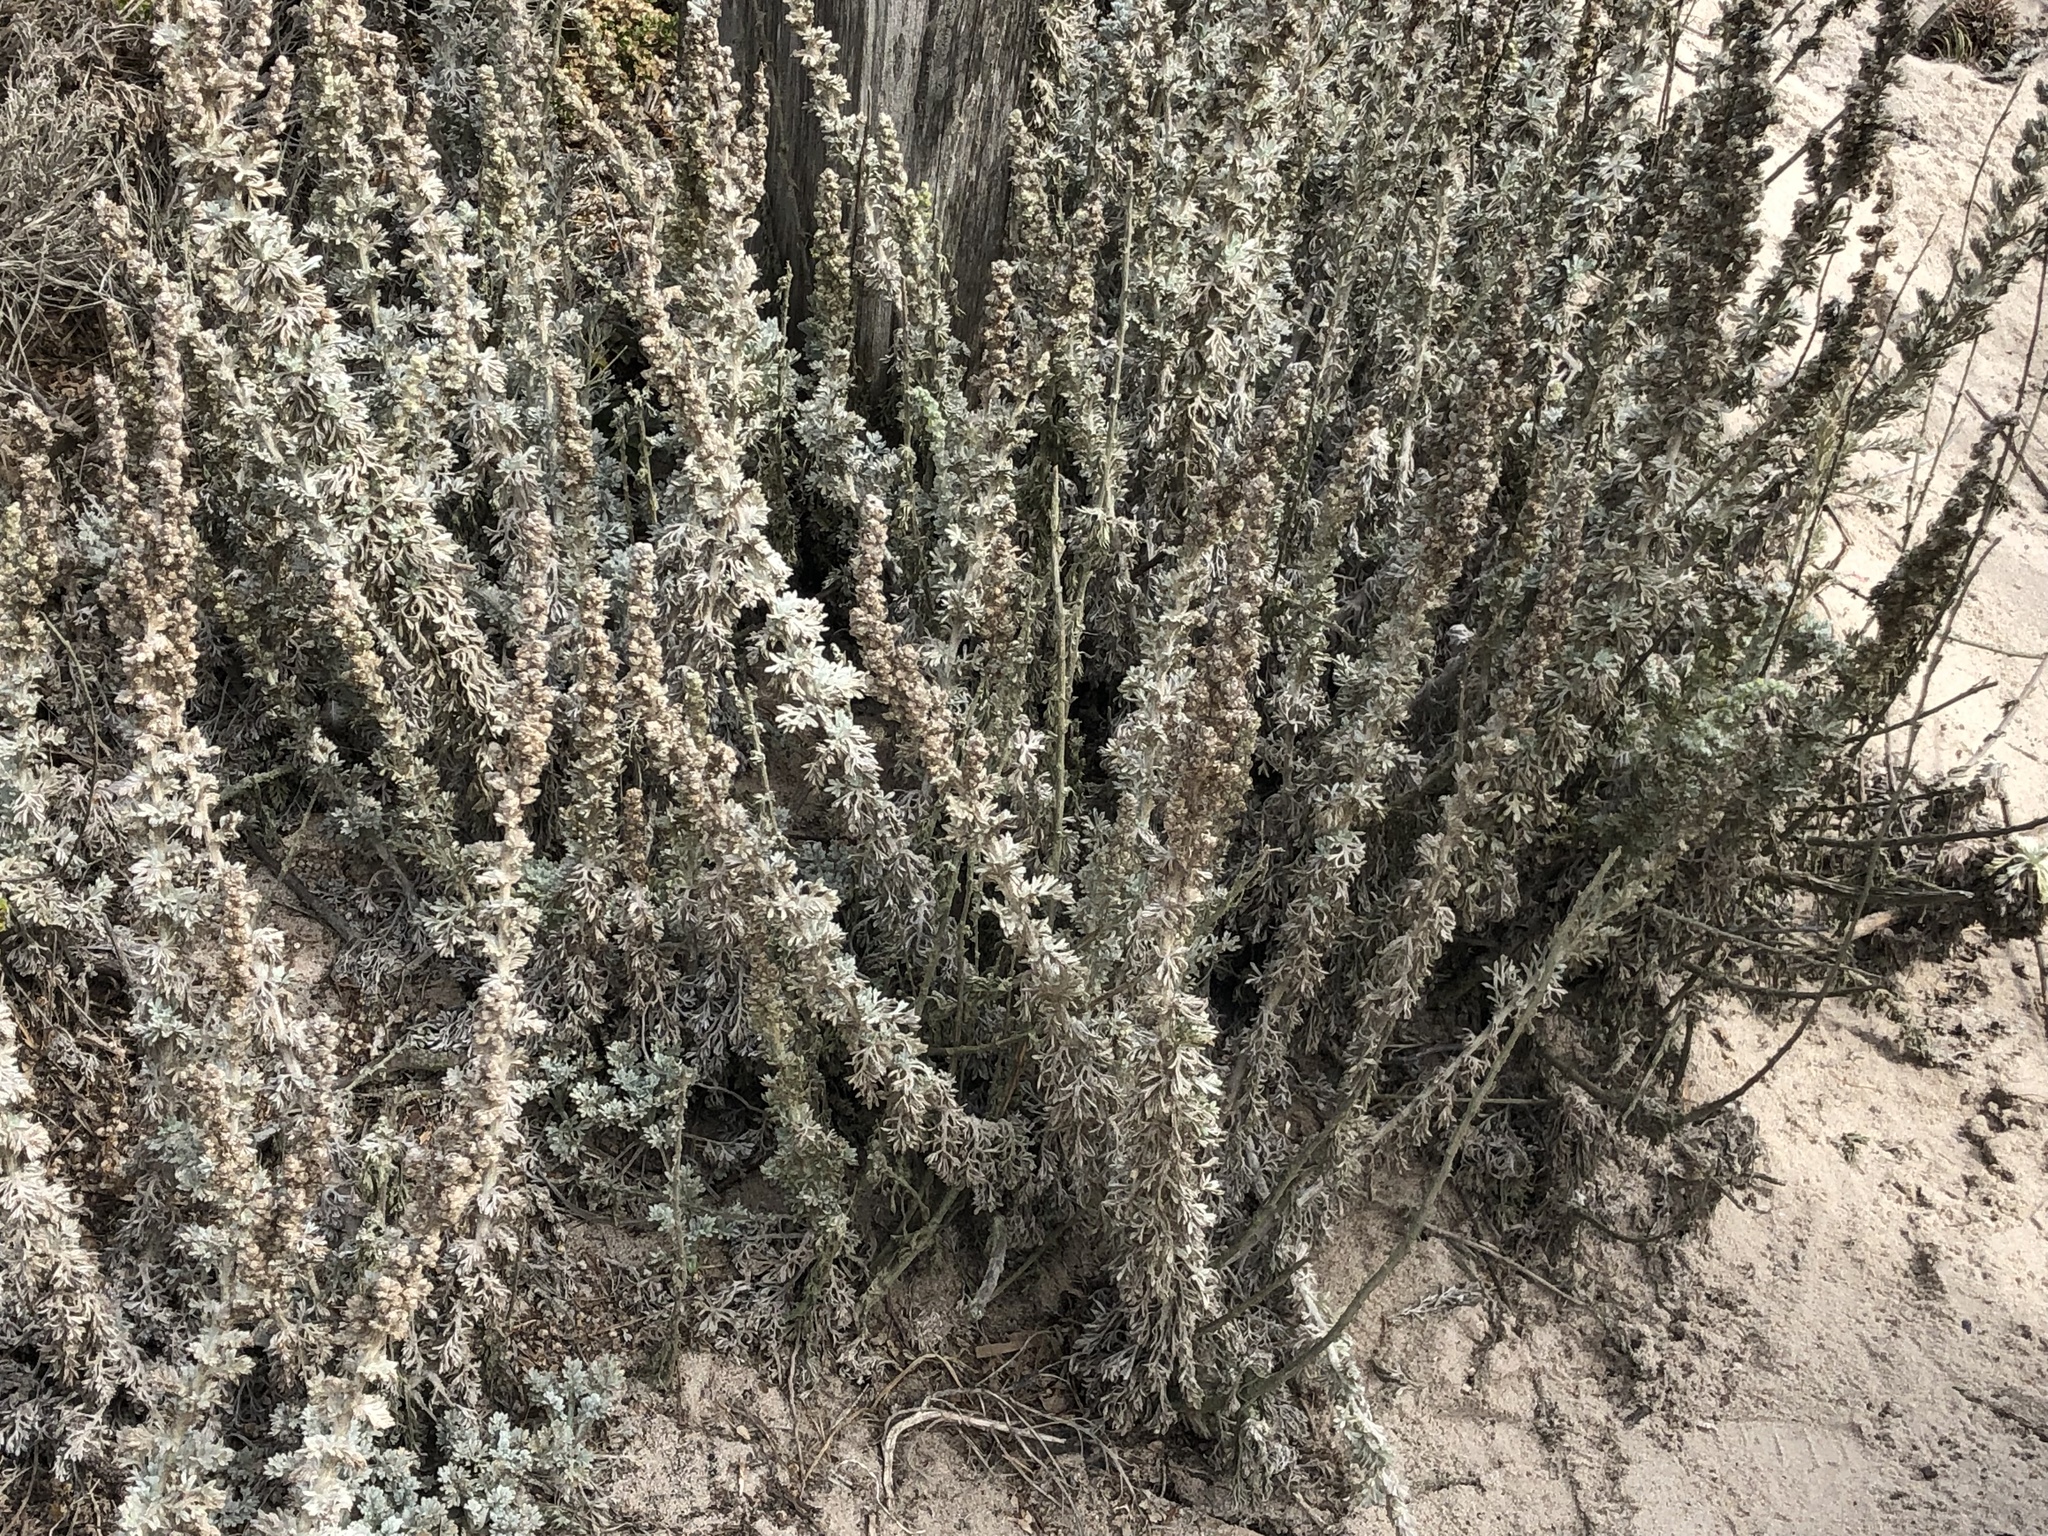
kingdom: Plantae
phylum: Tracheophyta
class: Magnoliopsida
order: Asterales
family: Asteraceae
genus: Artemisia
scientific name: Artemisia pycnocephala
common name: Coastal sagewort
